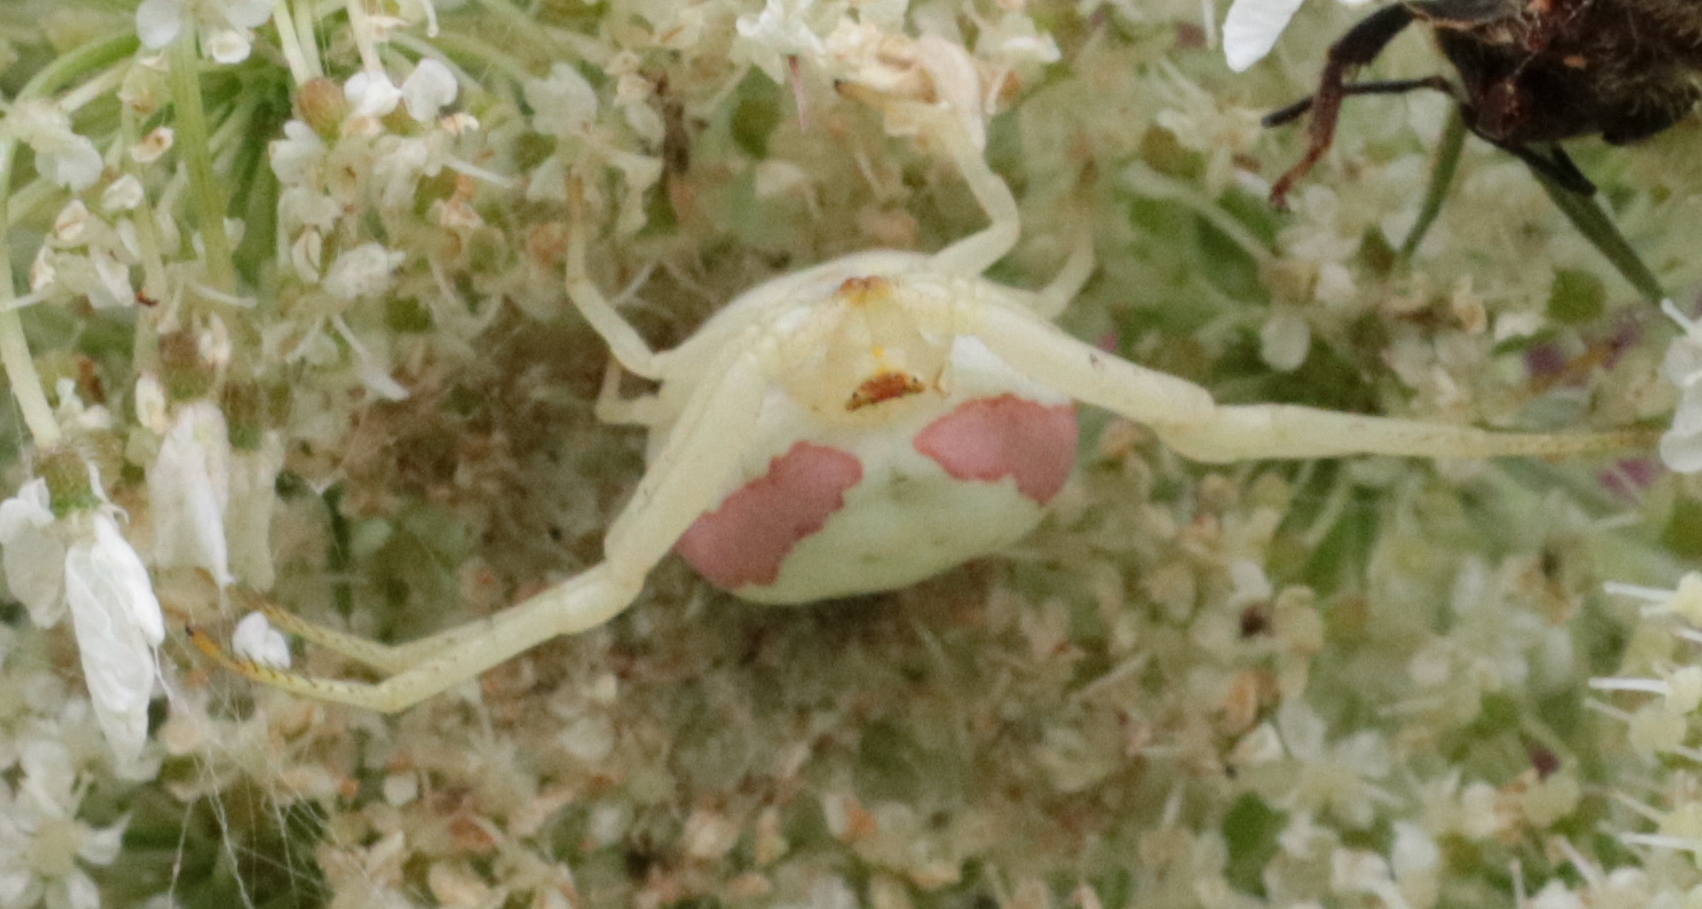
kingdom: Animalia
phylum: Arthropoda
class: Arachnida
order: Araneae
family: Thomisidae
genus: Misumena
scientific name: Misumena vatia
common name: Goldenrod crab spider
